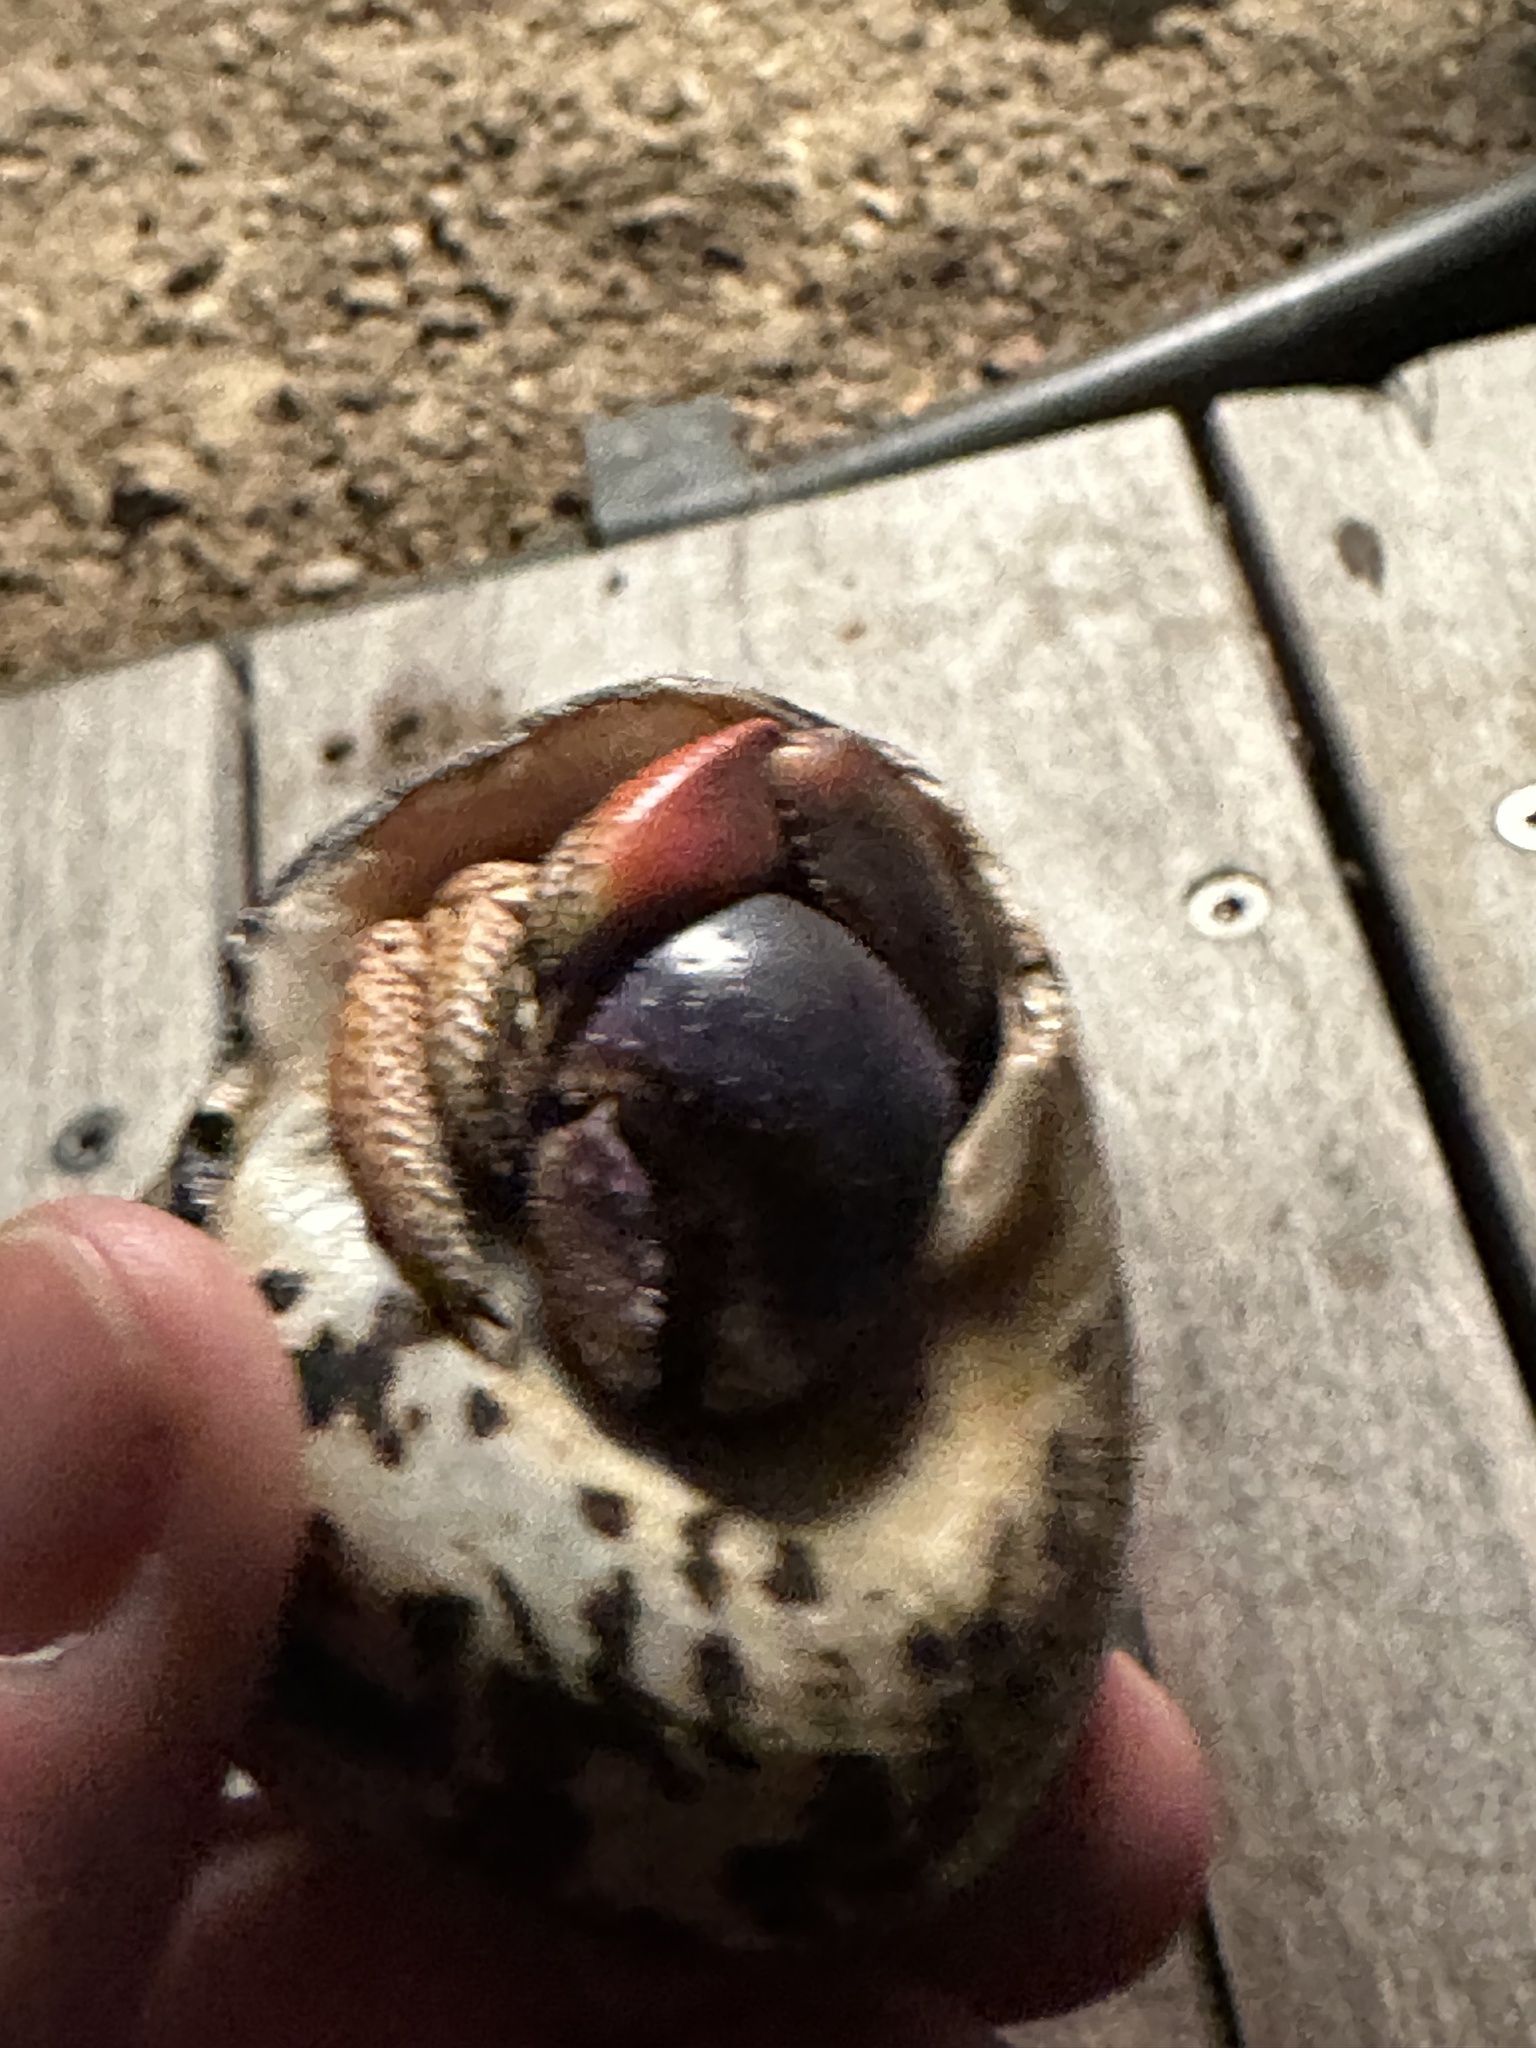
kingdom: Animalia
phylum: Arthropoda
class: Malacostraca
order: Decapoda
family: Coenobitidae
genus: Coenobita
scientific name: Coenobita clypeatus
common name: Caribbean hermit crab
